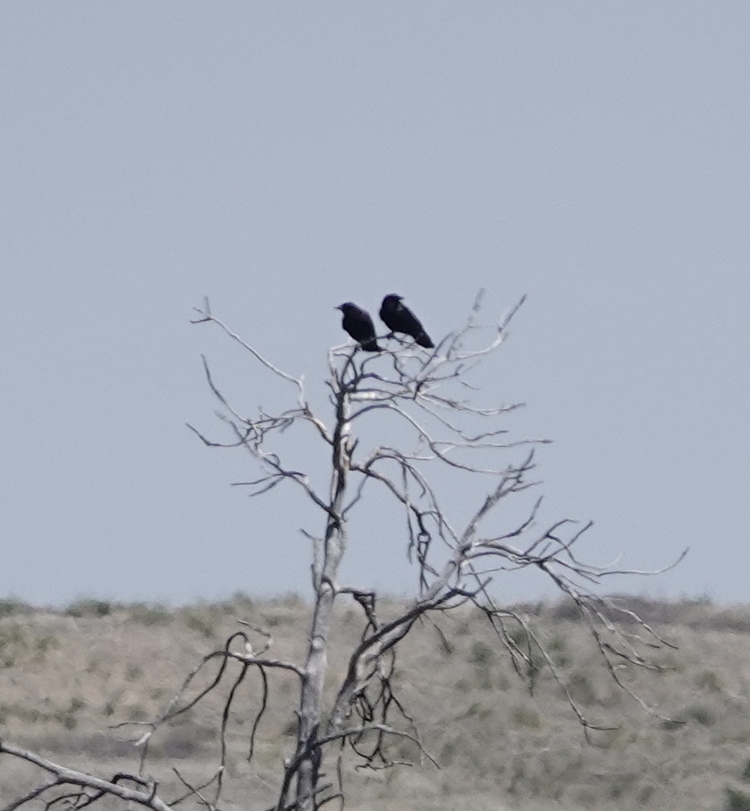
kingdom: Animalia
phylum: Chordata
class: Aves
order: Passeriformes
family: Corvidae
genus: Corvus
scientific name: Corvus brachyrhynchos
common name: American crow
